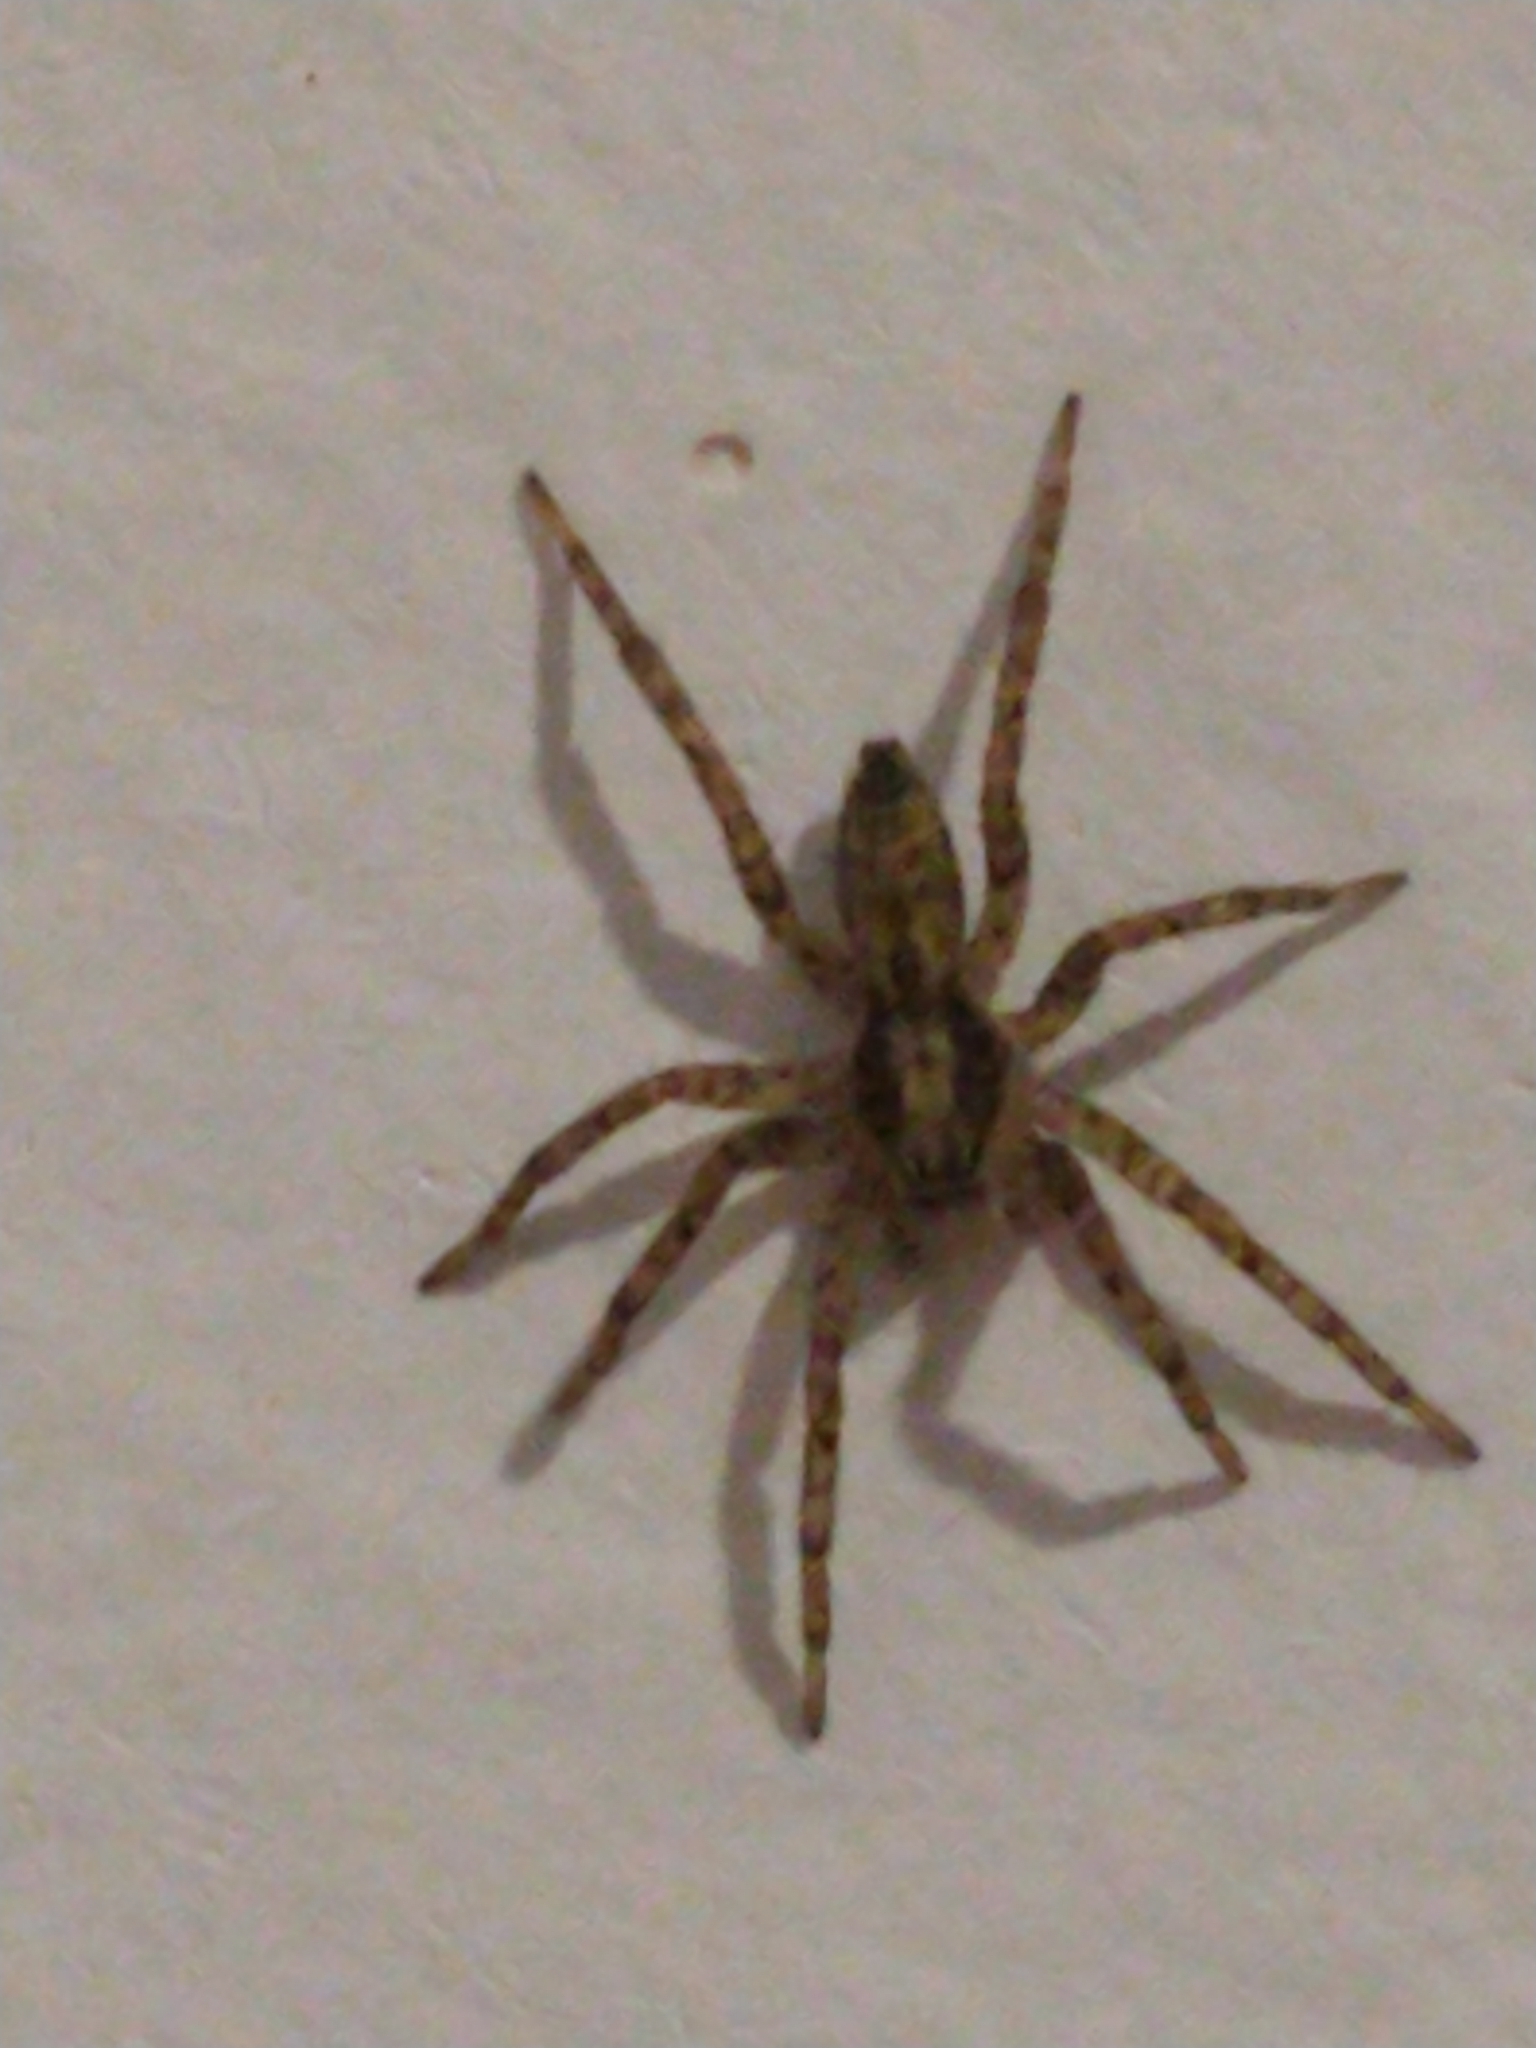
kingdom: Animalia
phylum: Arthropoda
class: Arachnida
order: Araneae
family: Anyphaenidae
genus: Tomopisthes
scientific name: Tomopisthes varius
